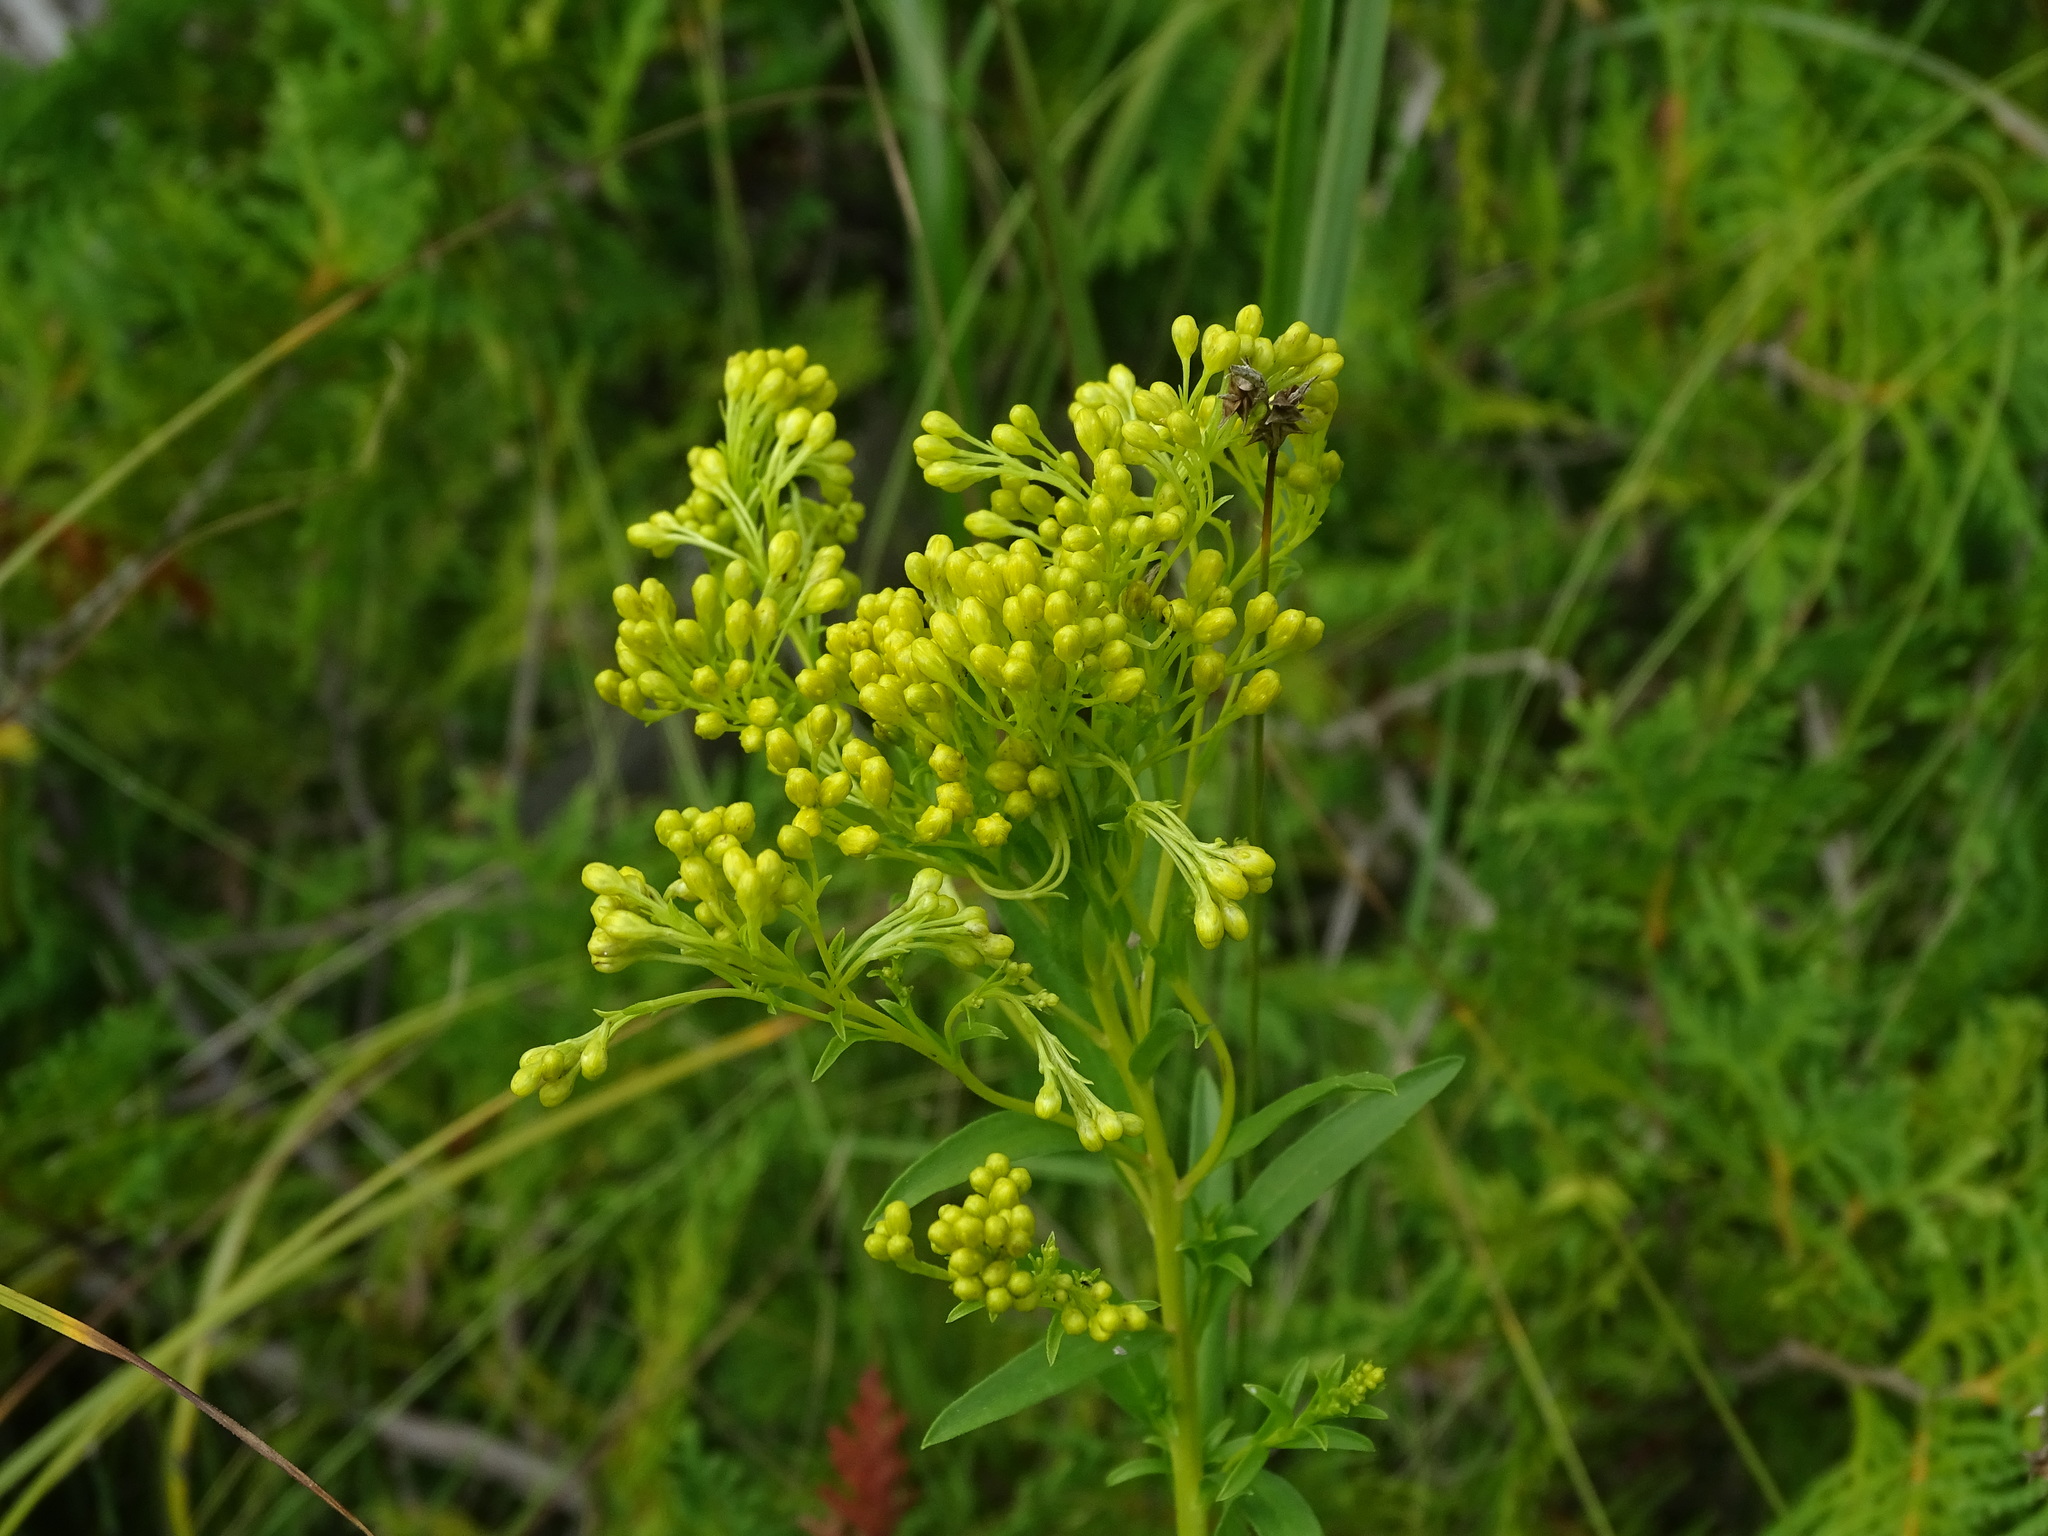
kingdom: Plantae
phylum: Tracheophyta
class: Magnoliopsida
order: Asterales
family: Asteraceae
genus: Solidago
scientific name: Solidago ohioensis
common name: Ohio goldenrod
